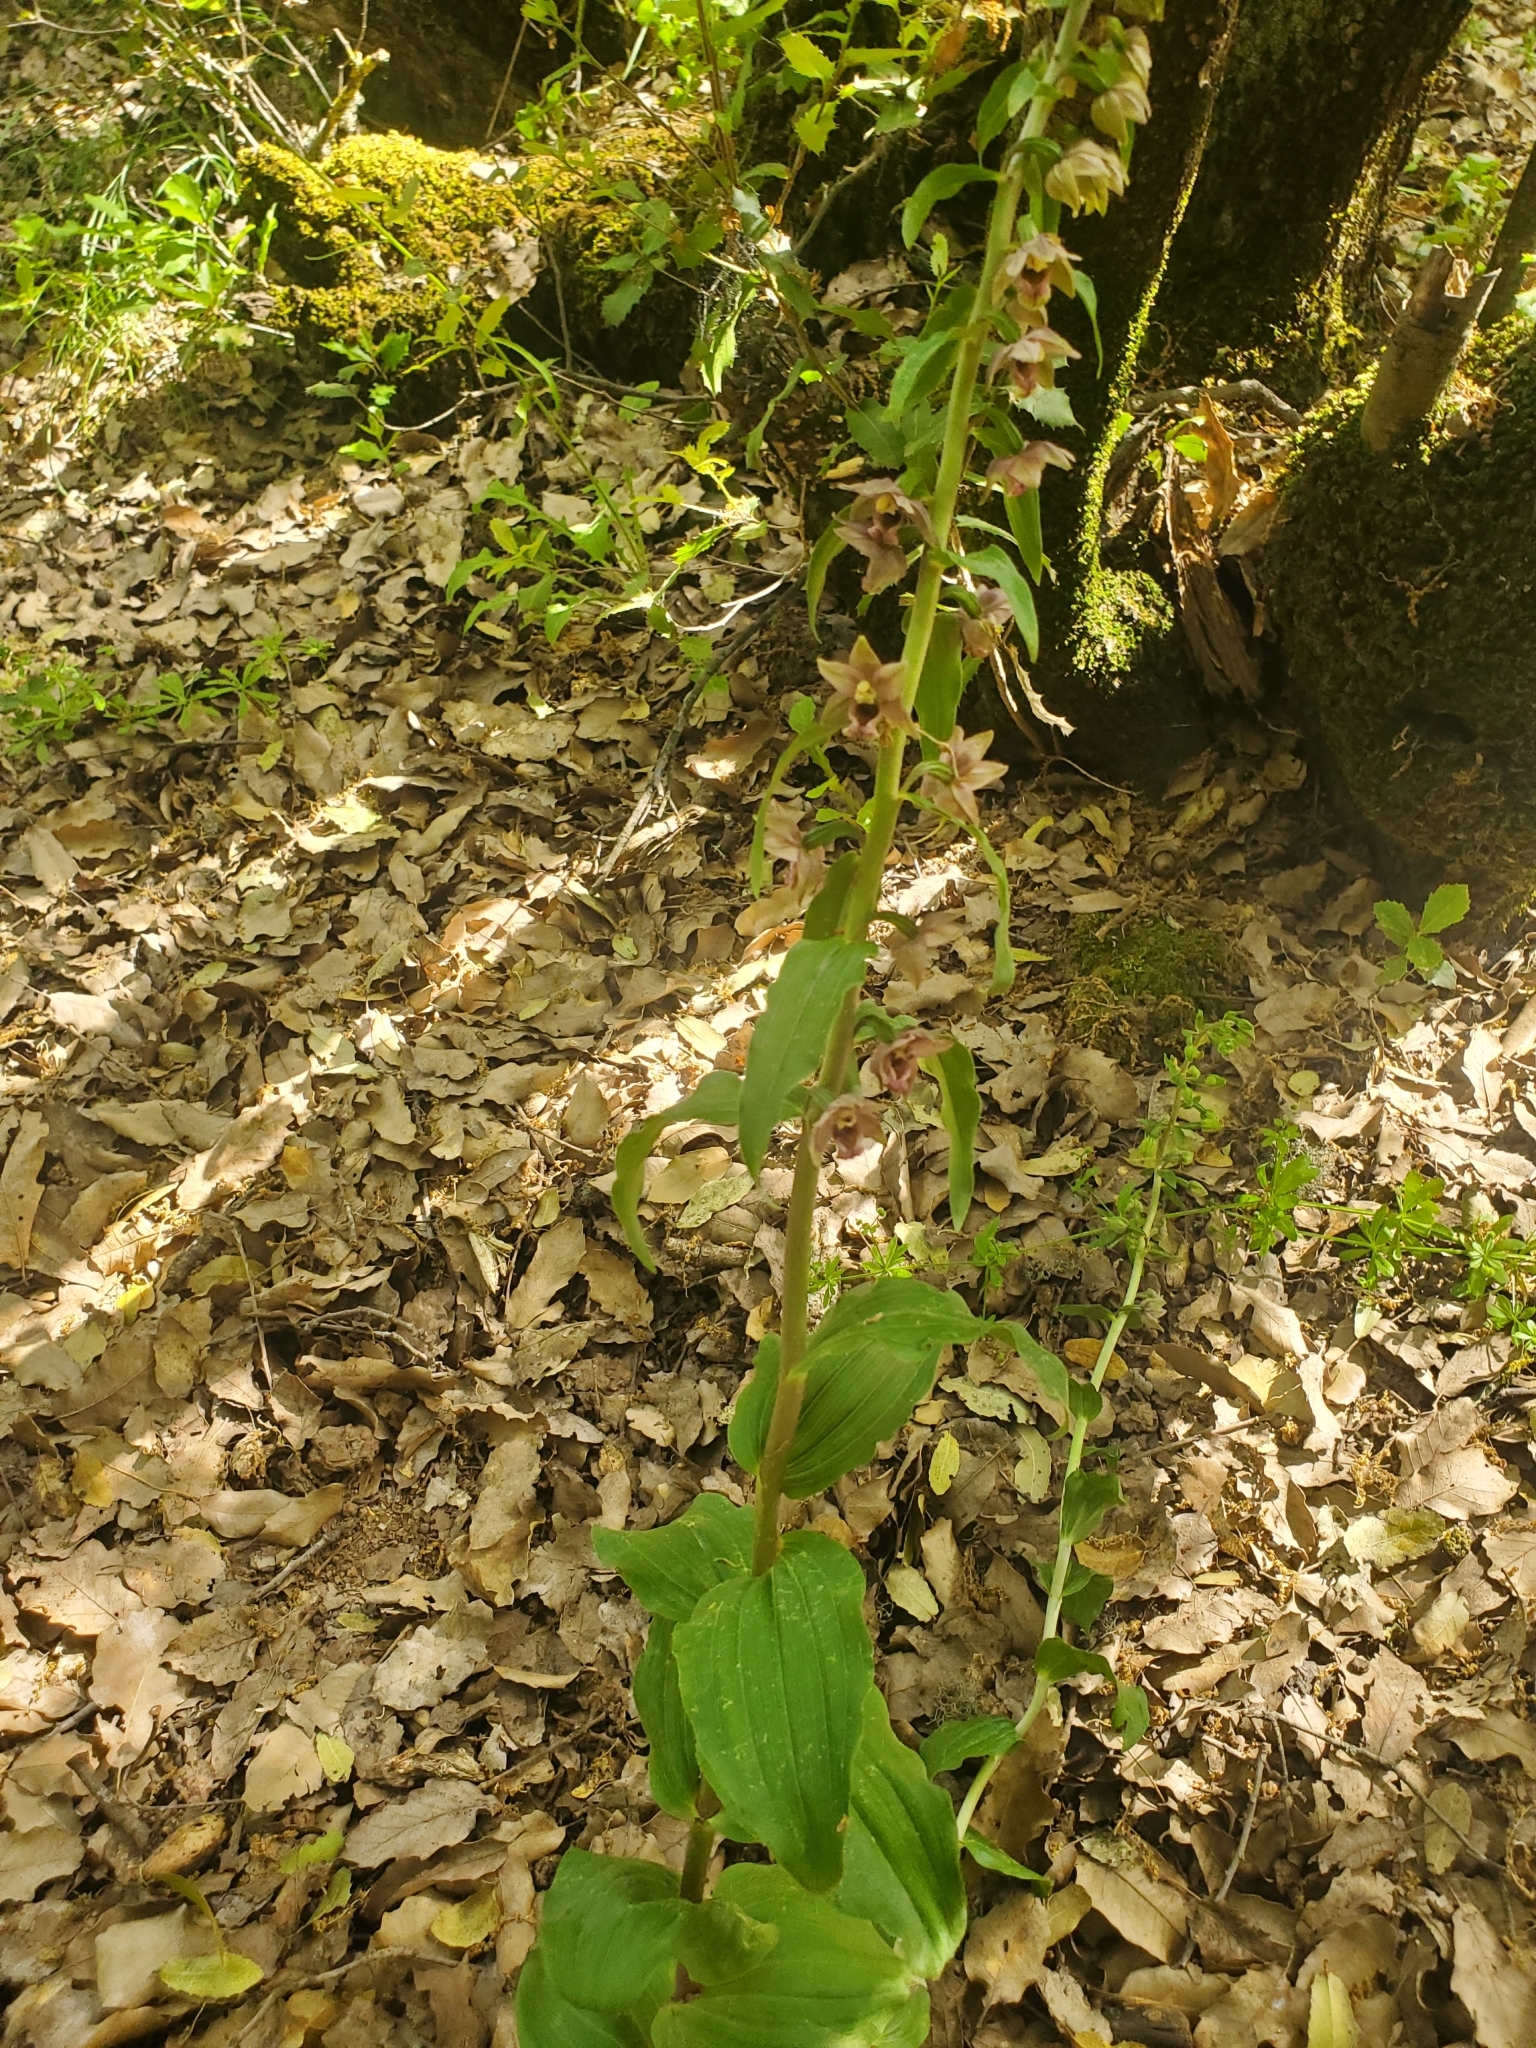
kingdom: Plantae
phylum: Tracheophyta
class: Liliopsida
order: Asparagales
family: Orchidaceae
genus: Epipactis
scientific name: Epipactis helleborine
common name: Broad-leaved helleborine
